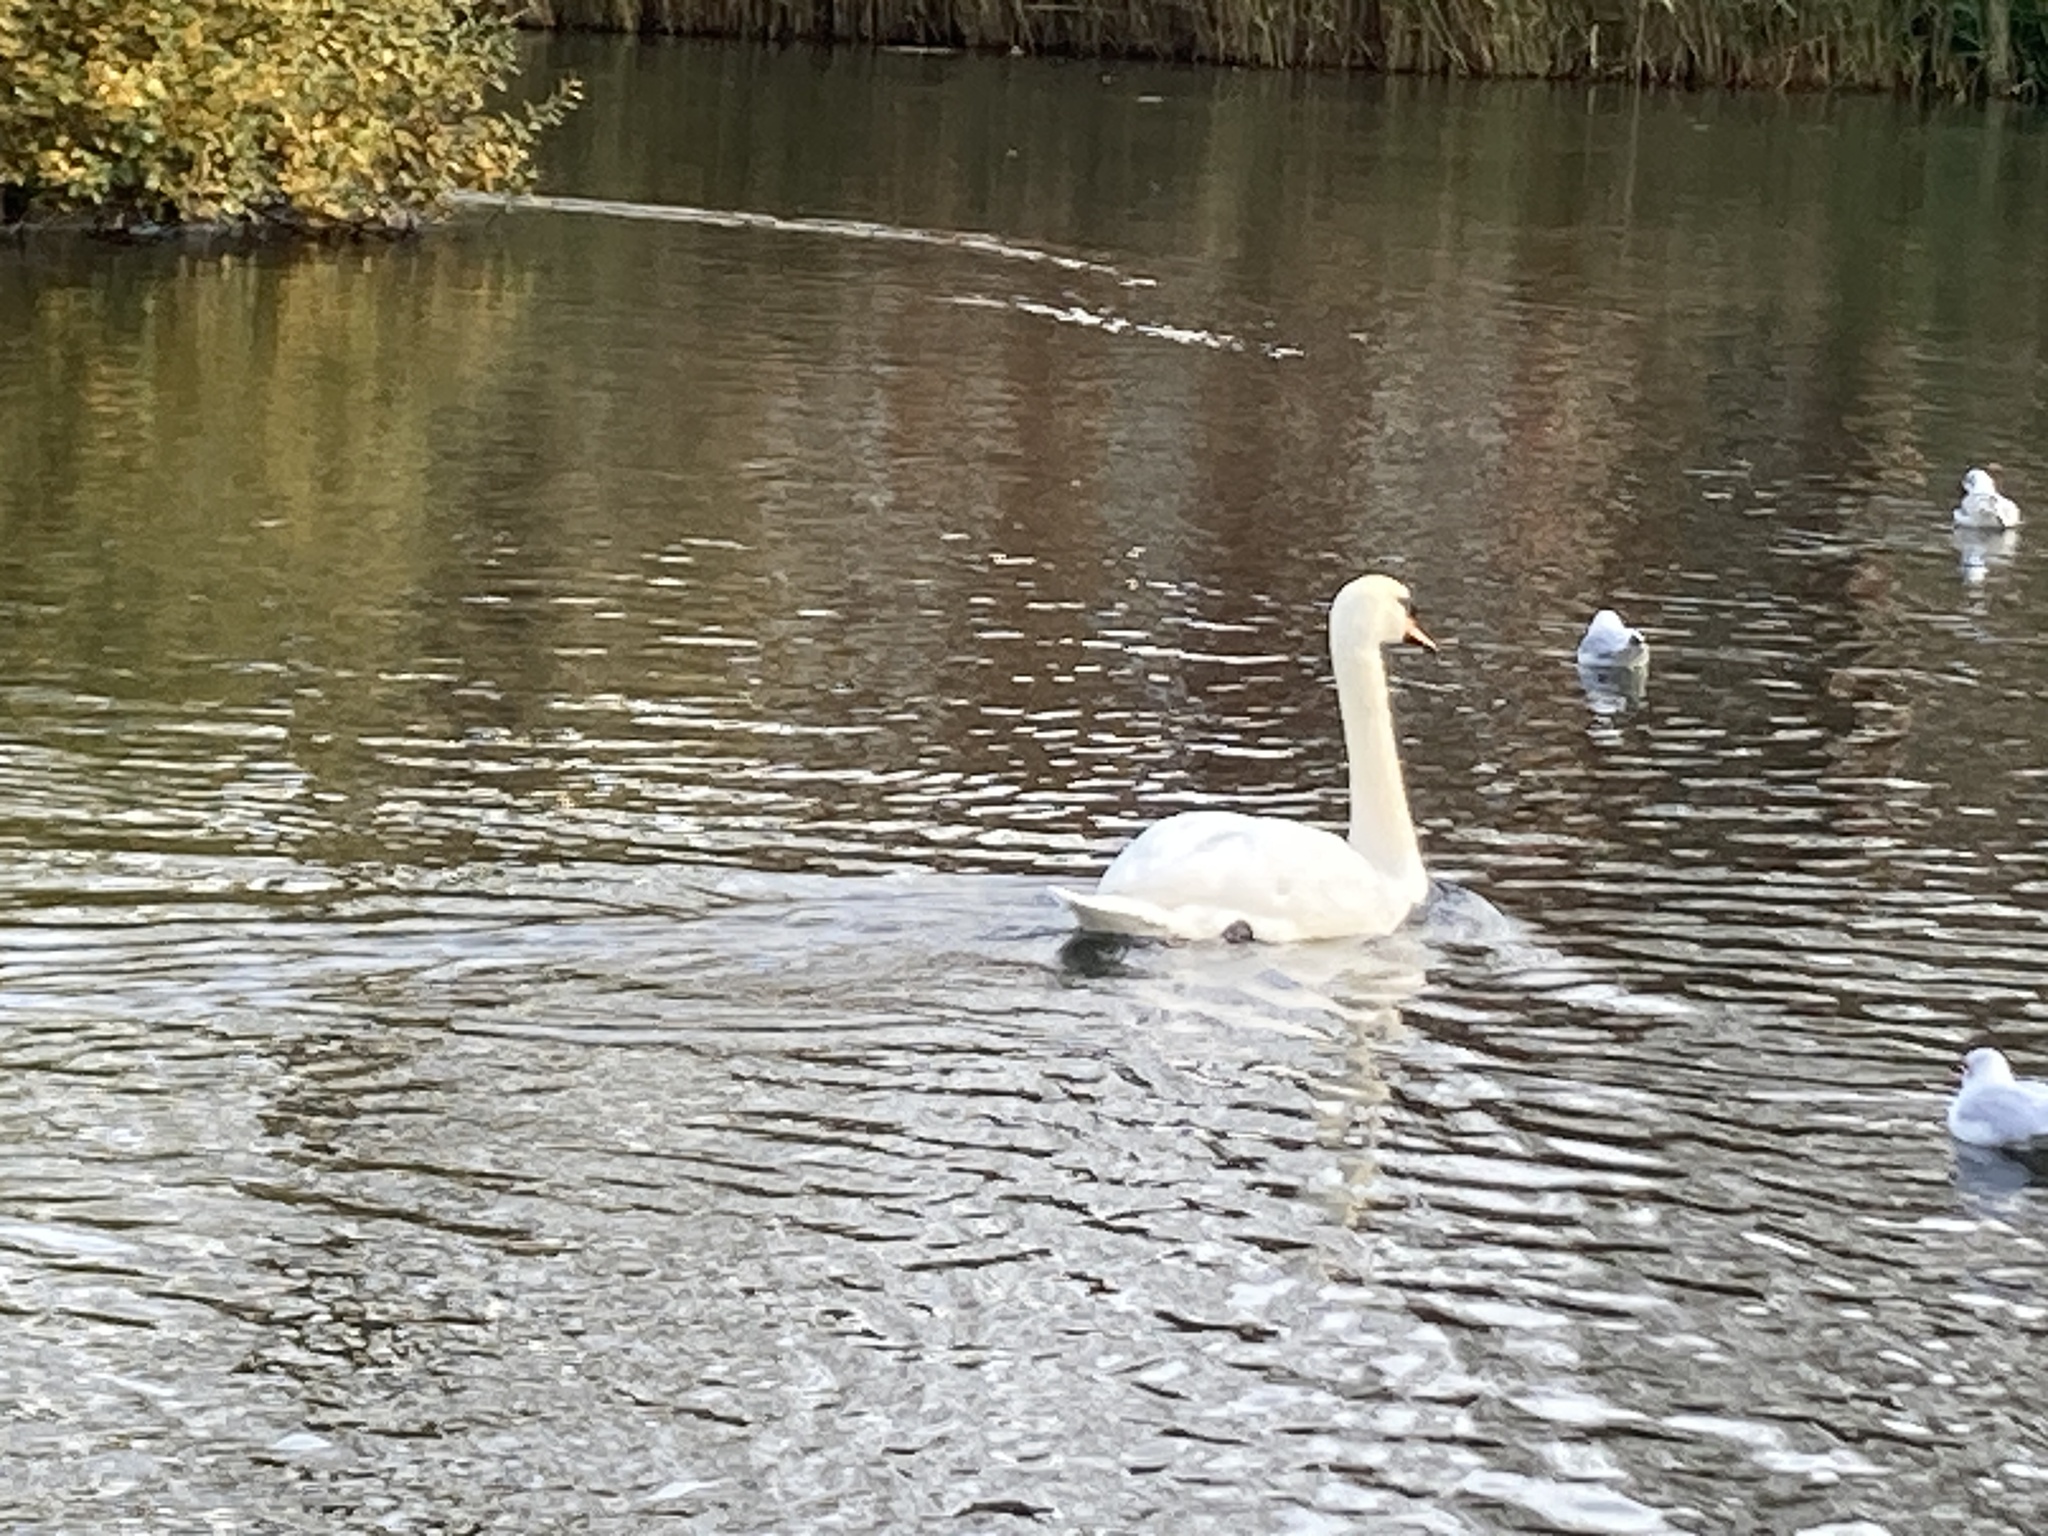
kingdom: Animalia
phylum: Chordata
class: Aves
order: Anseriformes
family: Anatidae
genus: Cygnus
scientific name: Cygnus olor
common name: Mute swan
